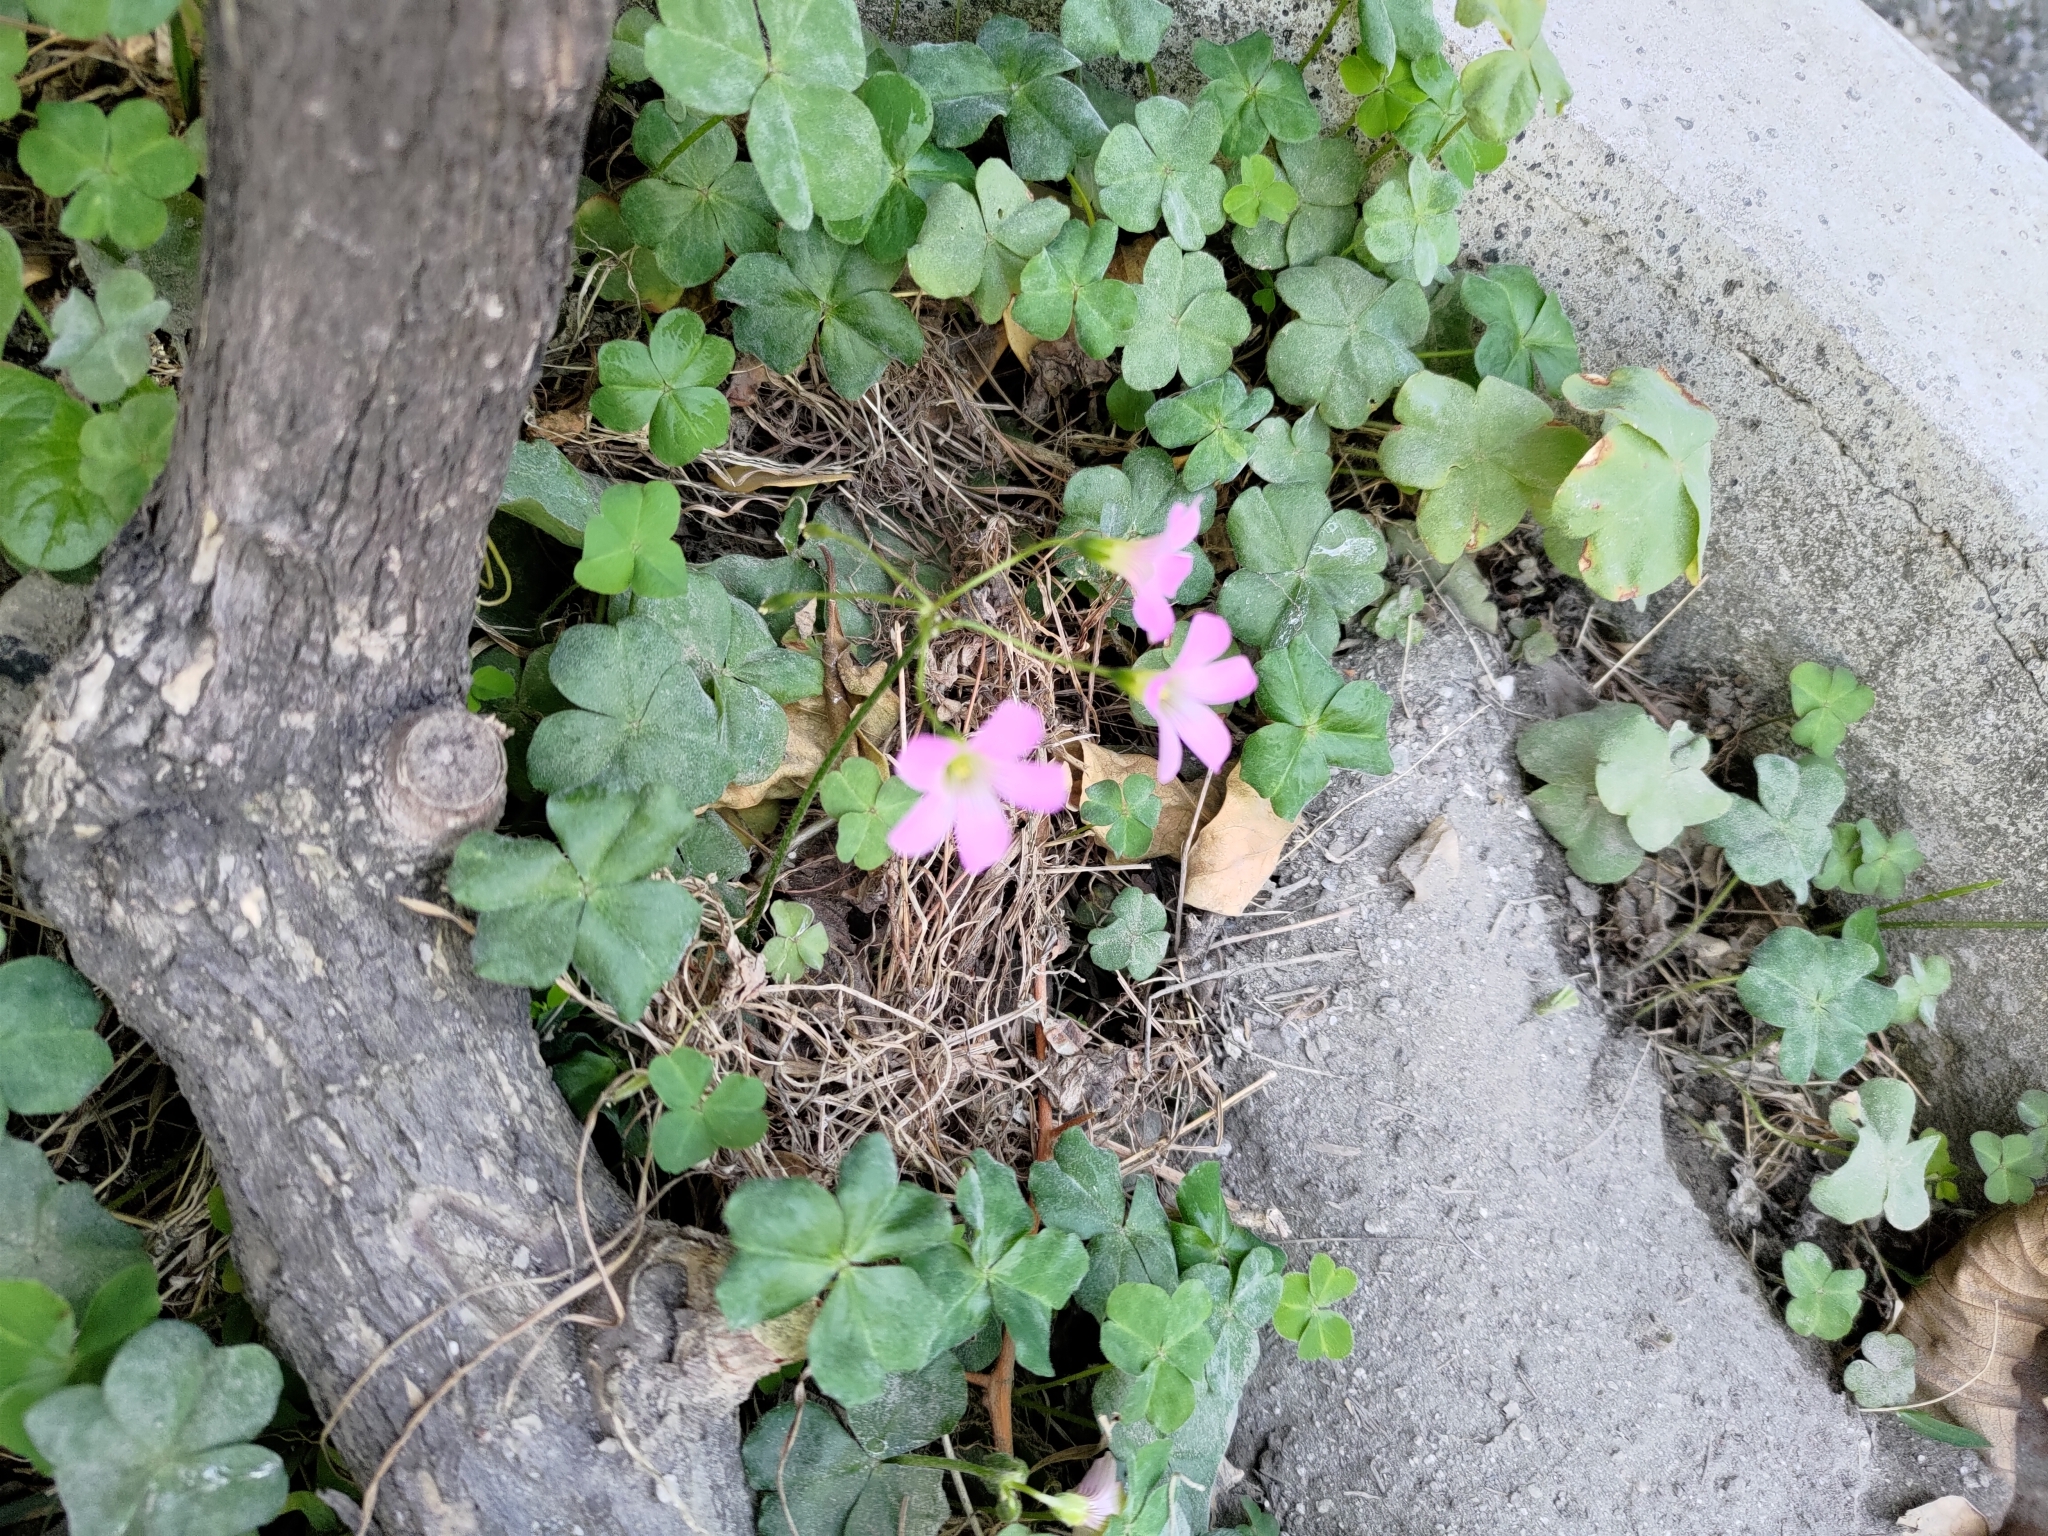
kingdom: Plantae
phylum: Tracheophyta
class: Magnoliopsida
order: Oxalidales
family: Oxalidaceae
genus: Oxalis
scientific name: Oxalis debilis
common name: Large-flowered pink-sorrel
